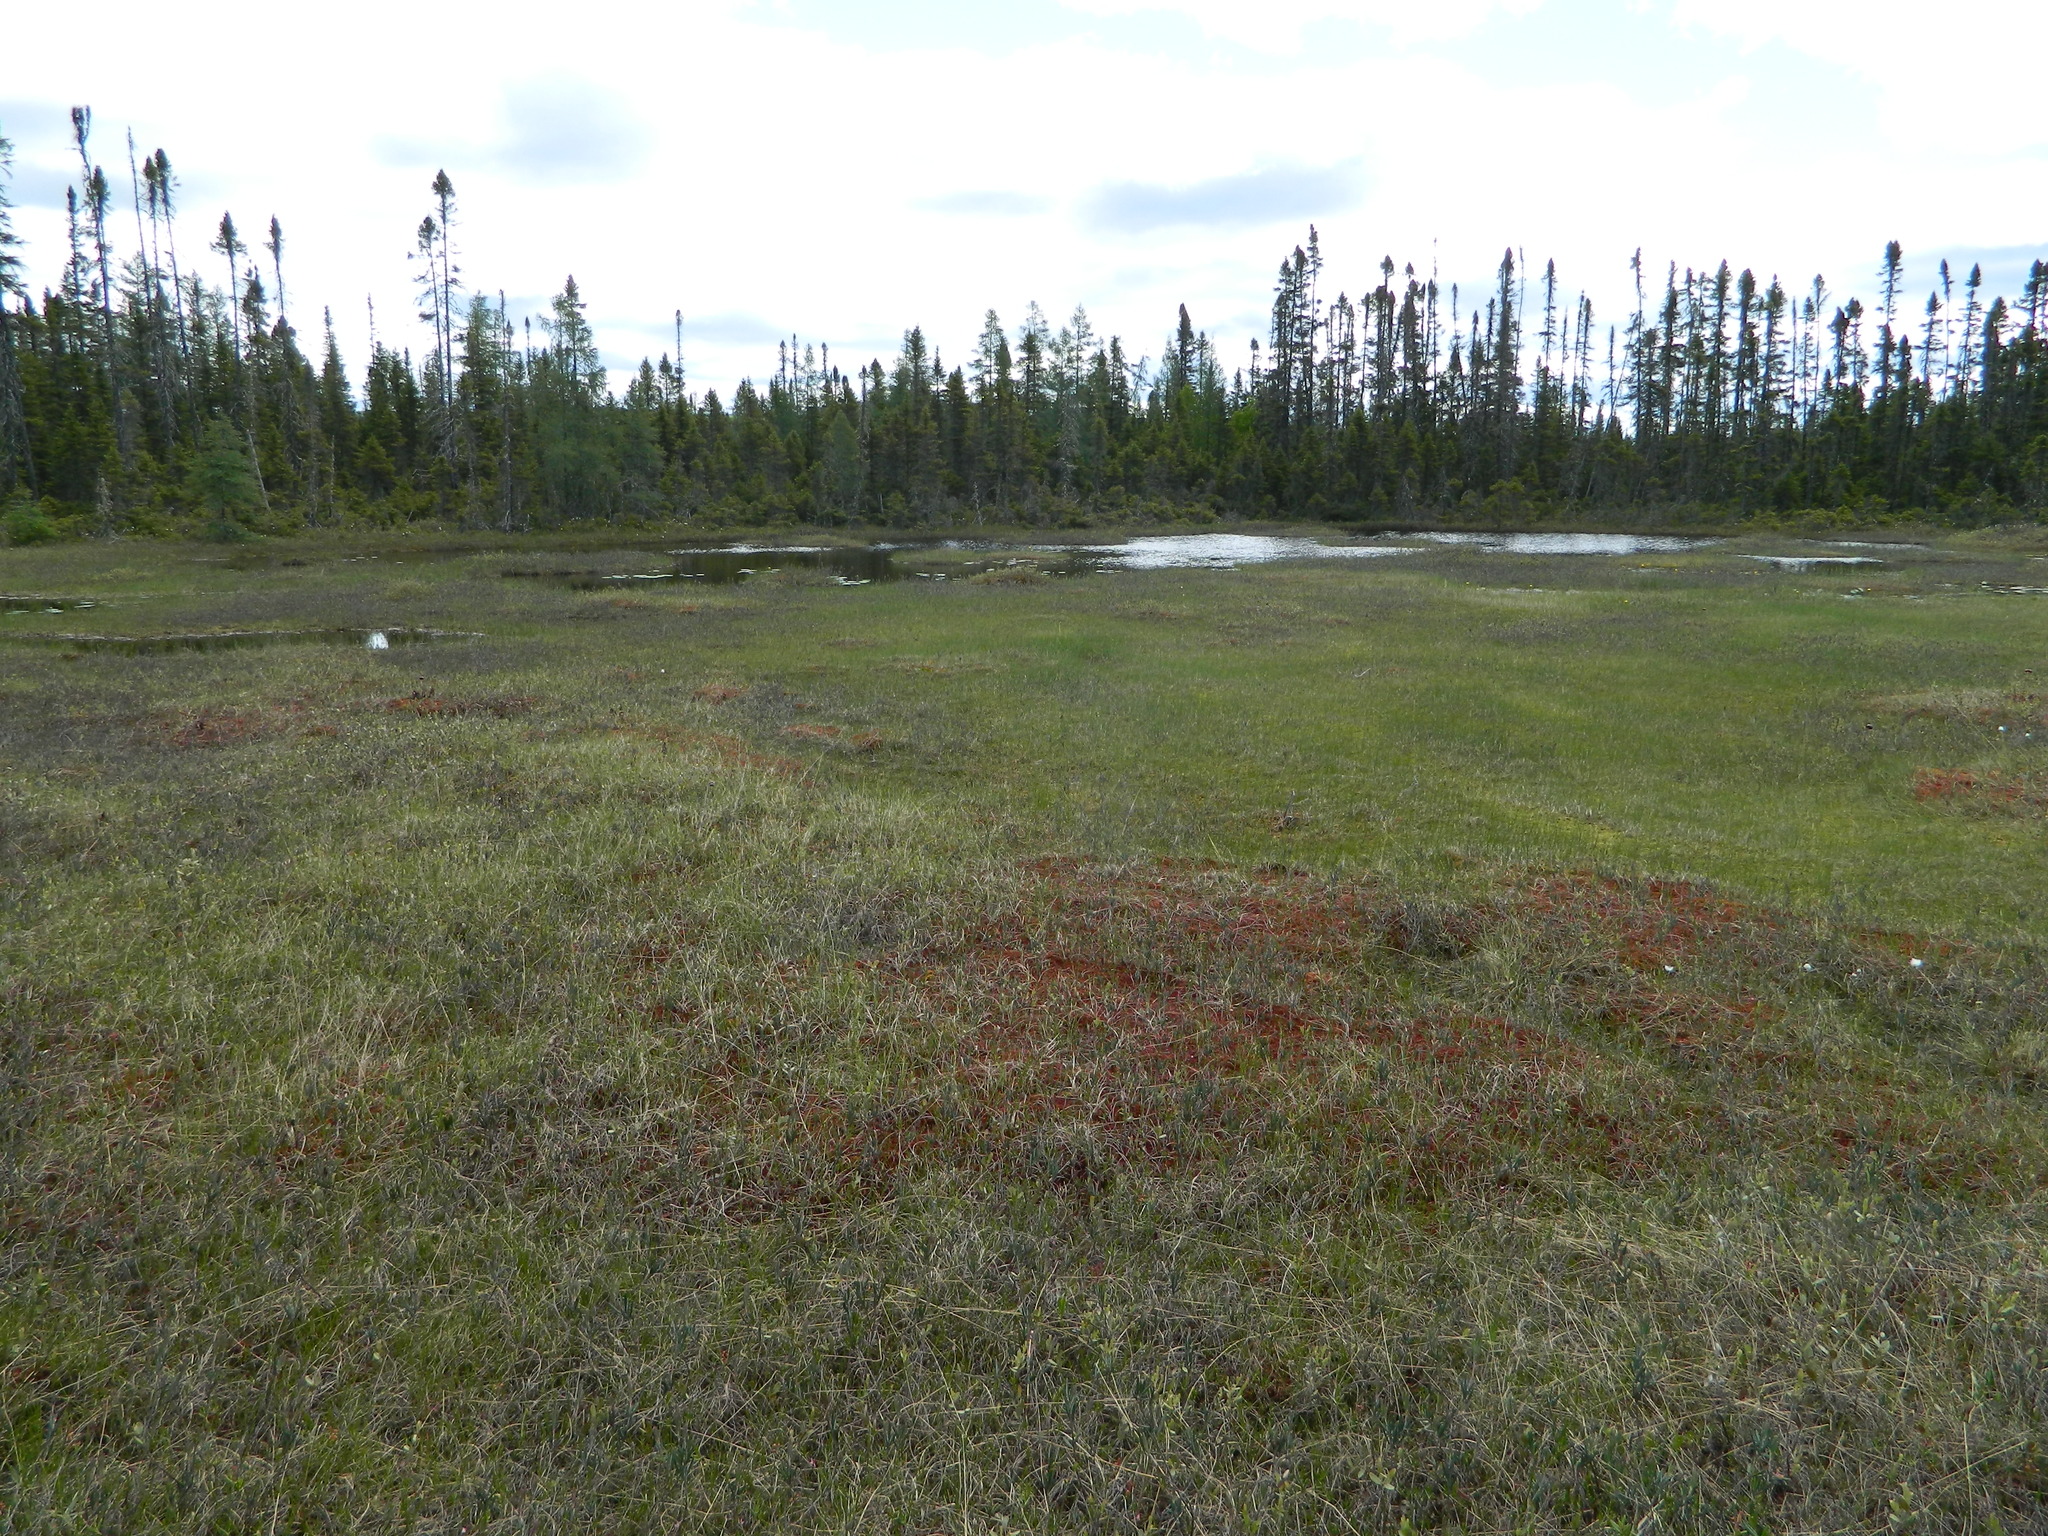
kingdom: Plantae
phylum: Tracheophyta
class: Pinopsida
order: Pinales
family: Pinaceae
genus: Picea
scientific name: Picea mariana
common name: Black spruce
